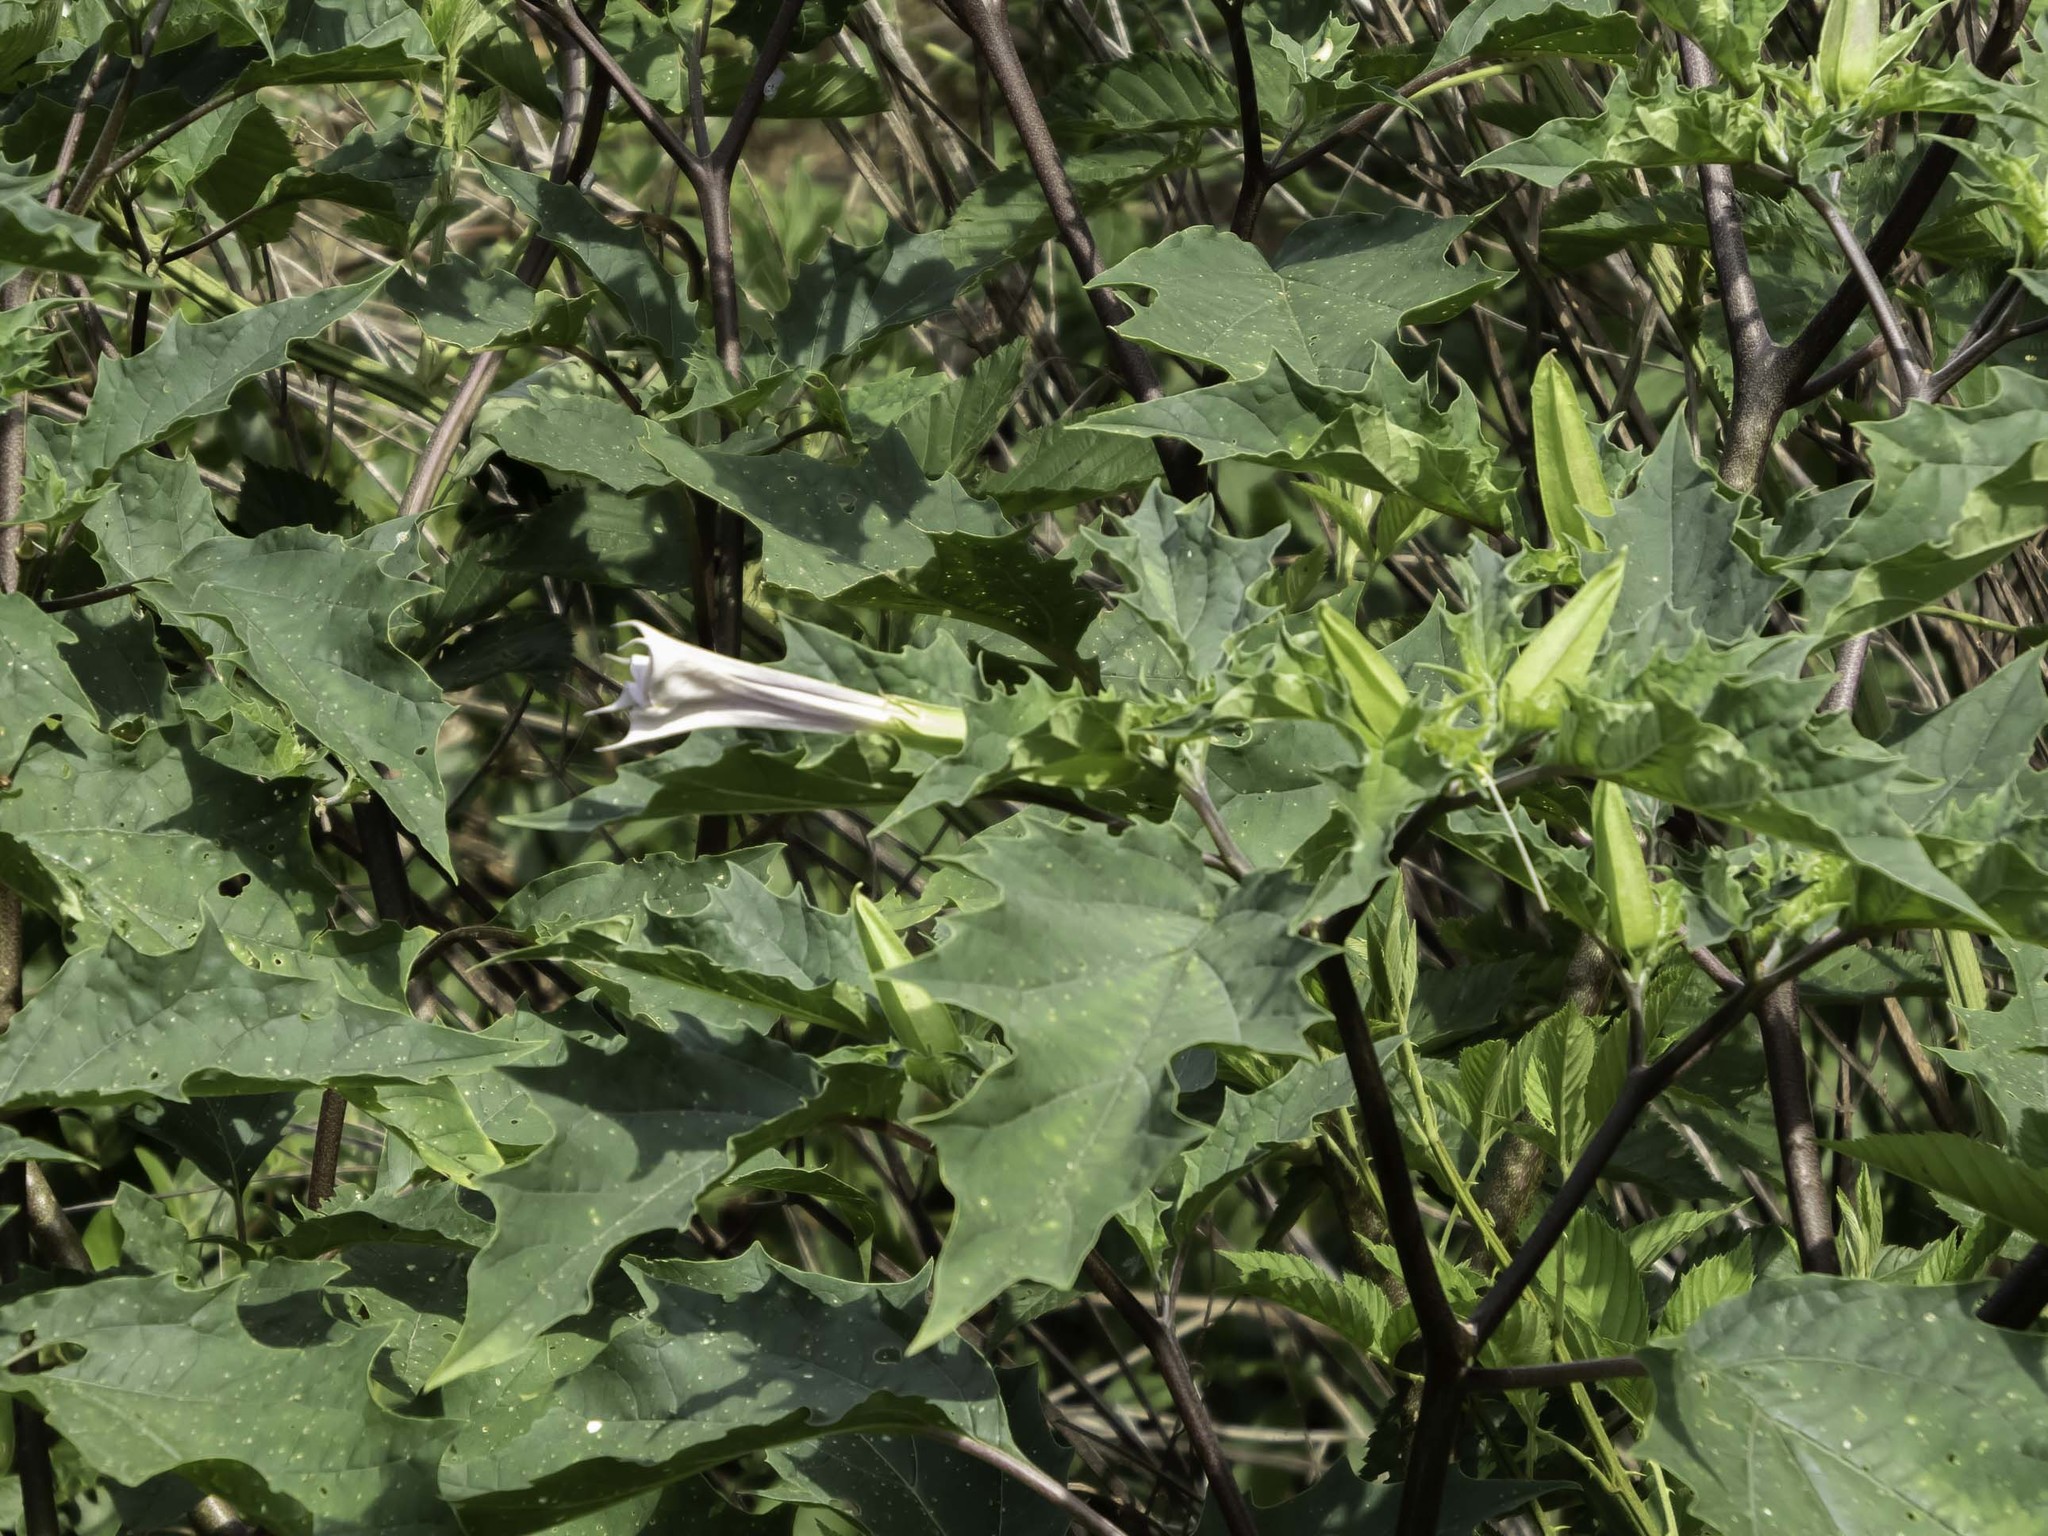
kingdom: Plantae
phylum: Tracheophyta
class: Magnoliopsida
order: Solanales
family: Solanaceae
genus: Datura
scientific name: Datura stramonium
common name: Thorn-apple
